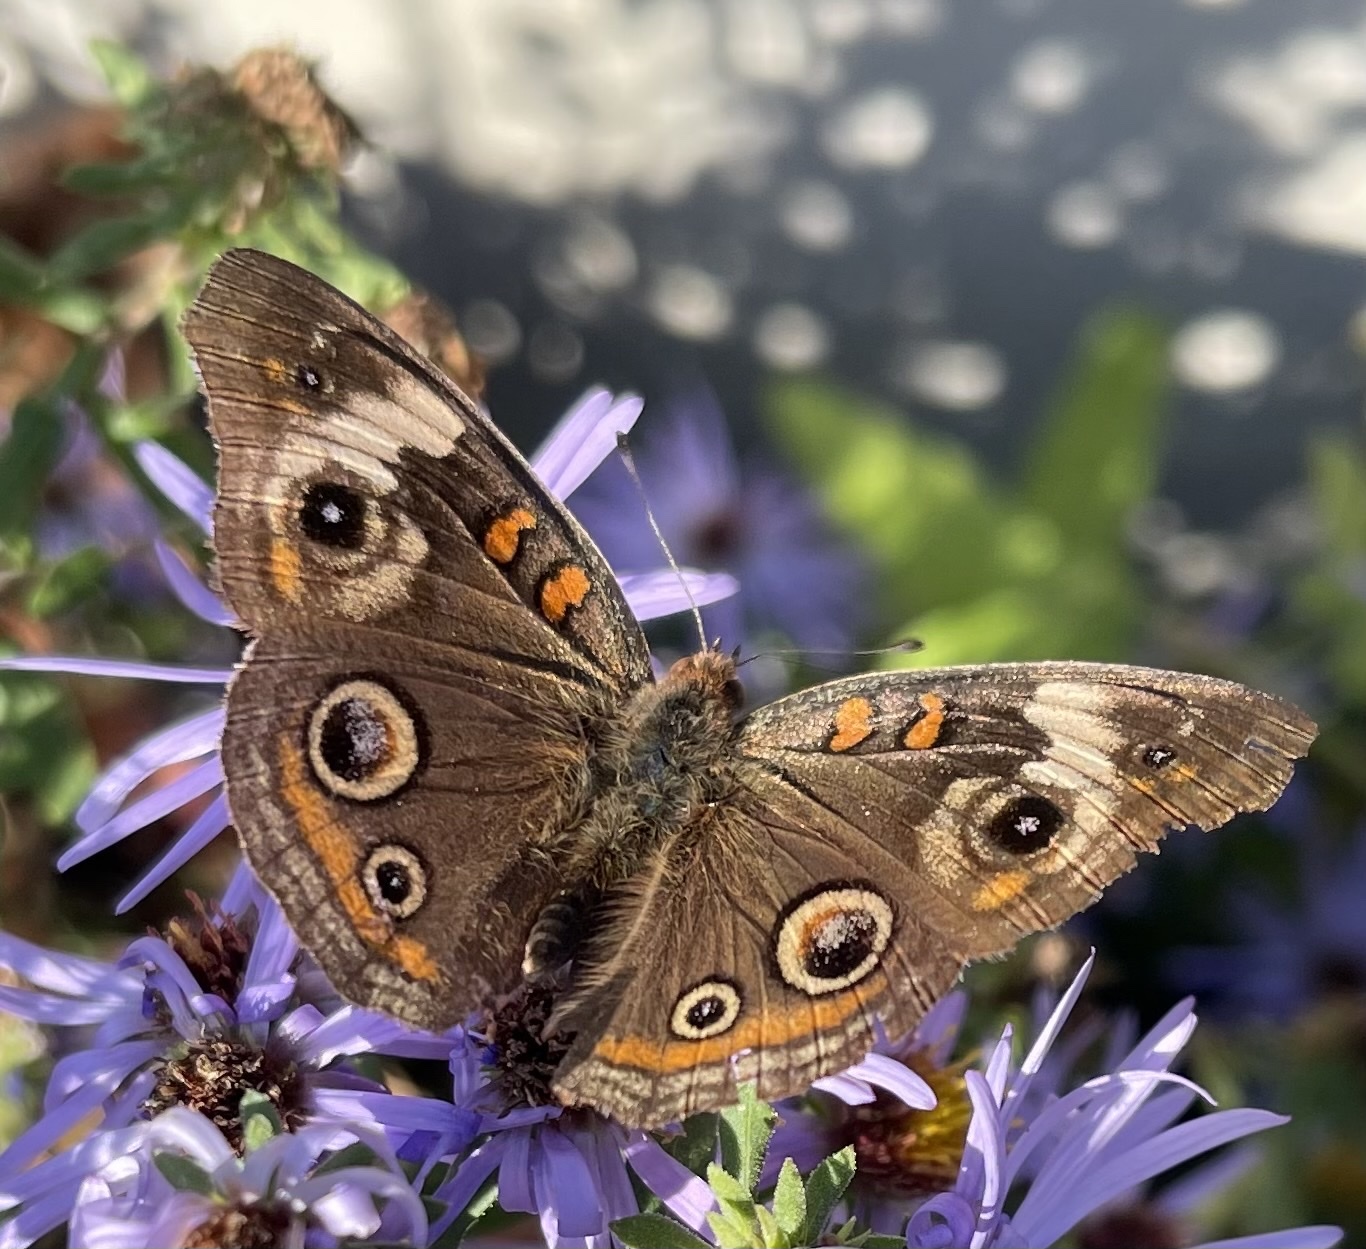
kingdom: Animalia
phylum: Arthropoda
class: Insecta
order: Lepidoptera
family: Nymphalidae
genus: Junonia
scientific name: Junonia coenia
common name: Common buckeye
